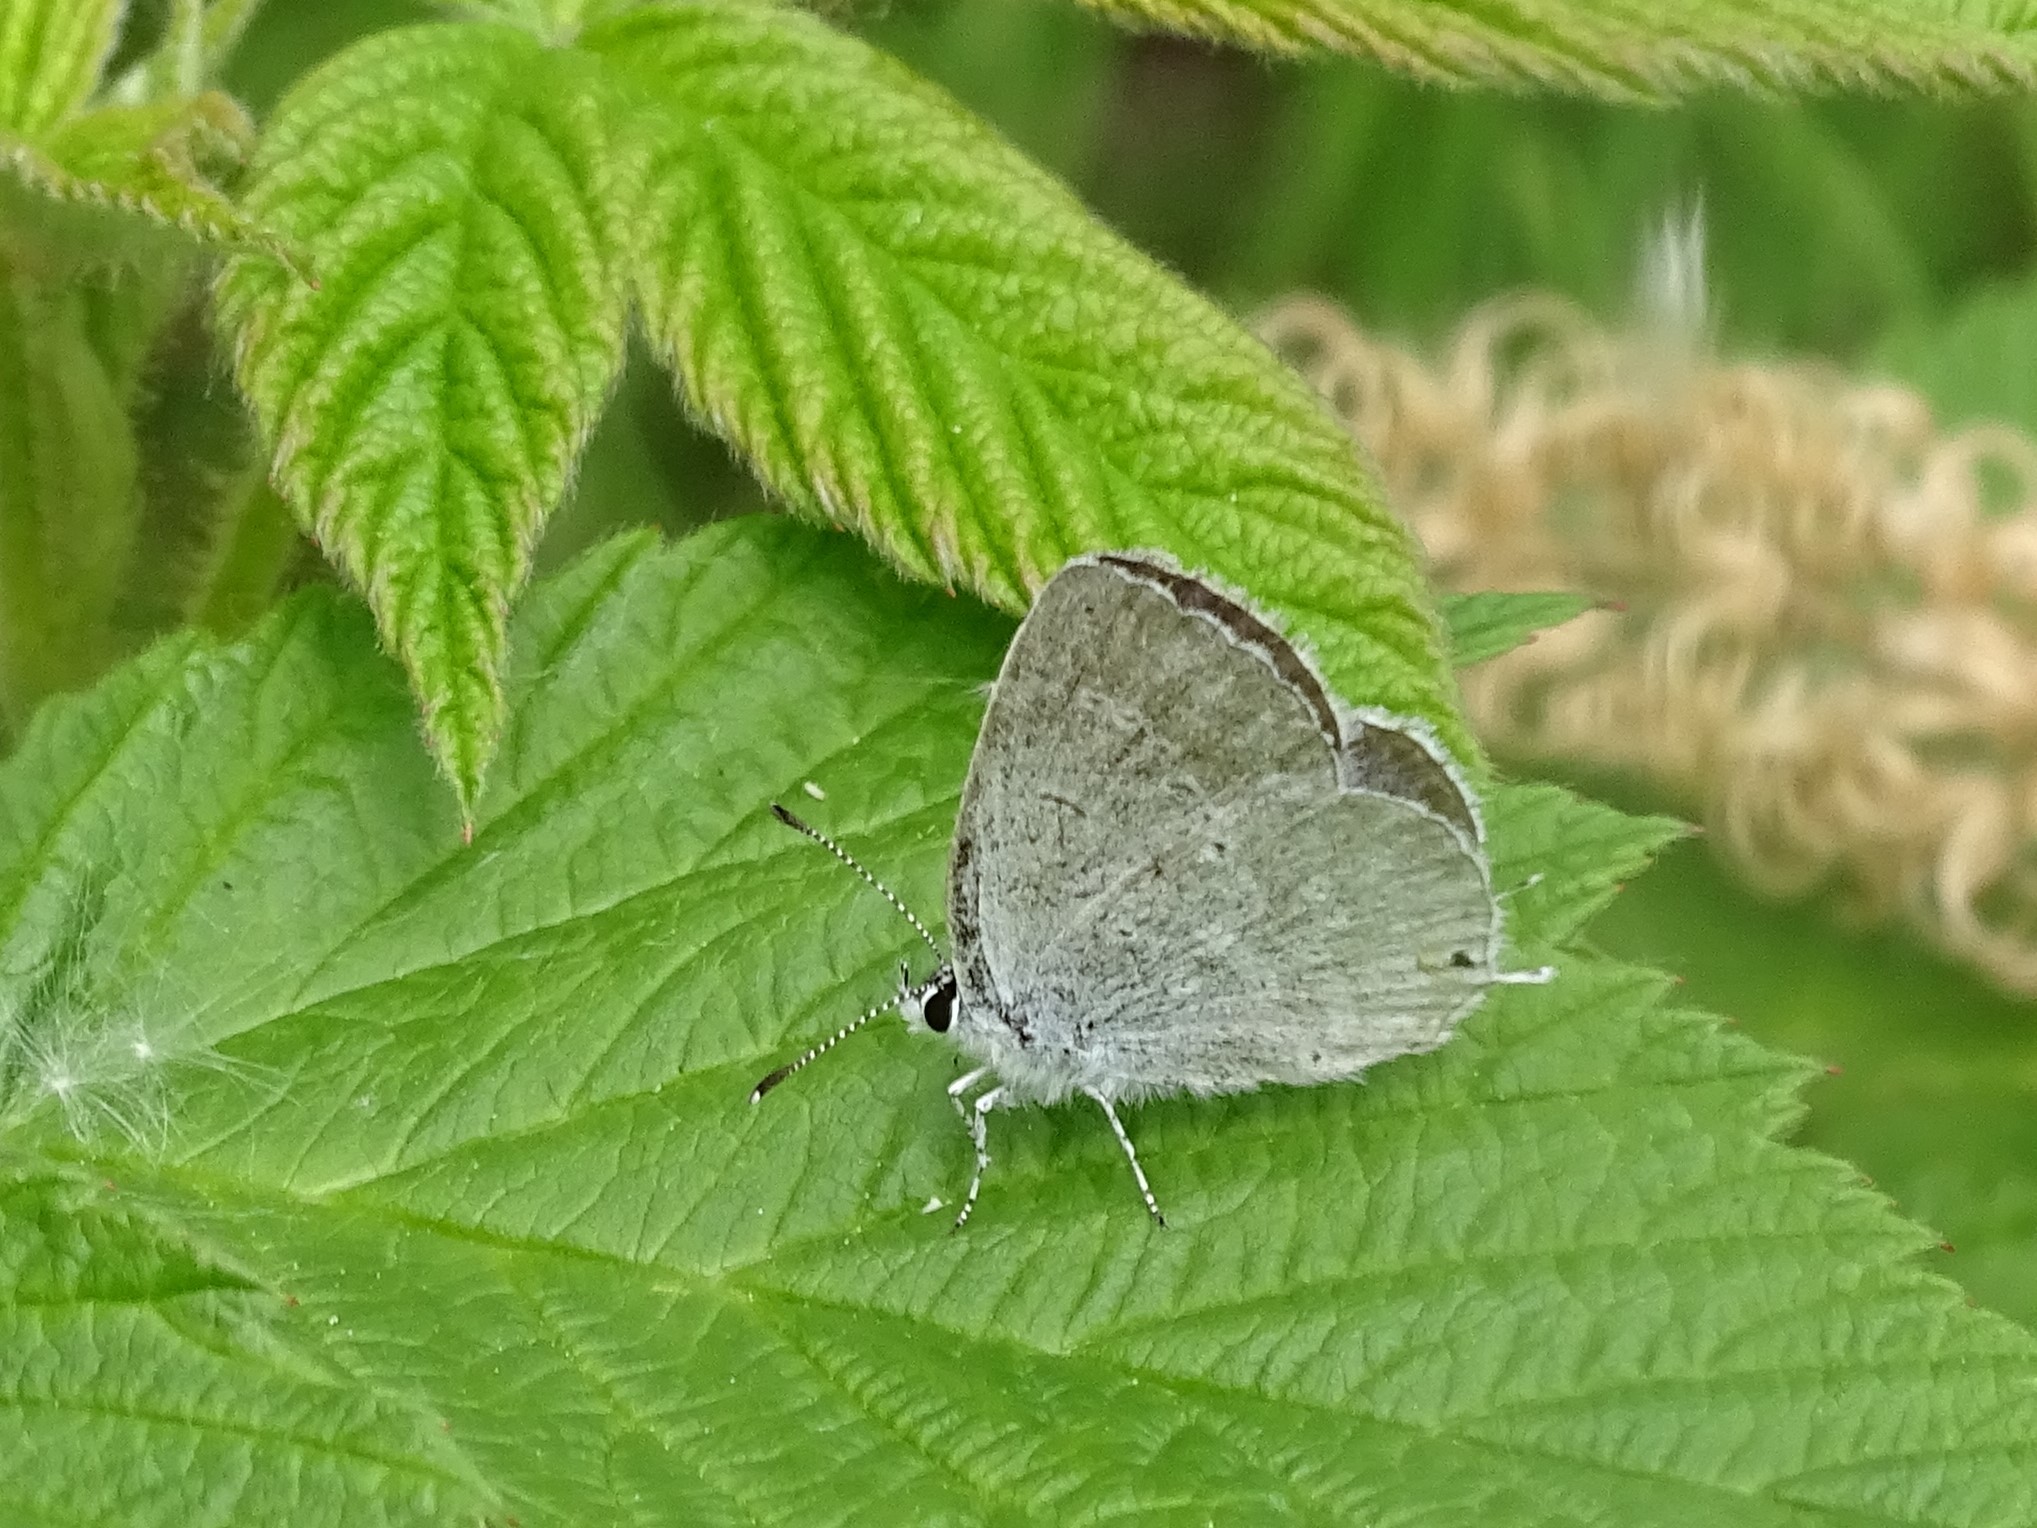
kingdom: Animalia
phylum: Arthropoda
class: Insecta
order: Lepidoptera
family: Lycaenidae
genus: Elkalyce
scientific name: Elkalyce amyntula
